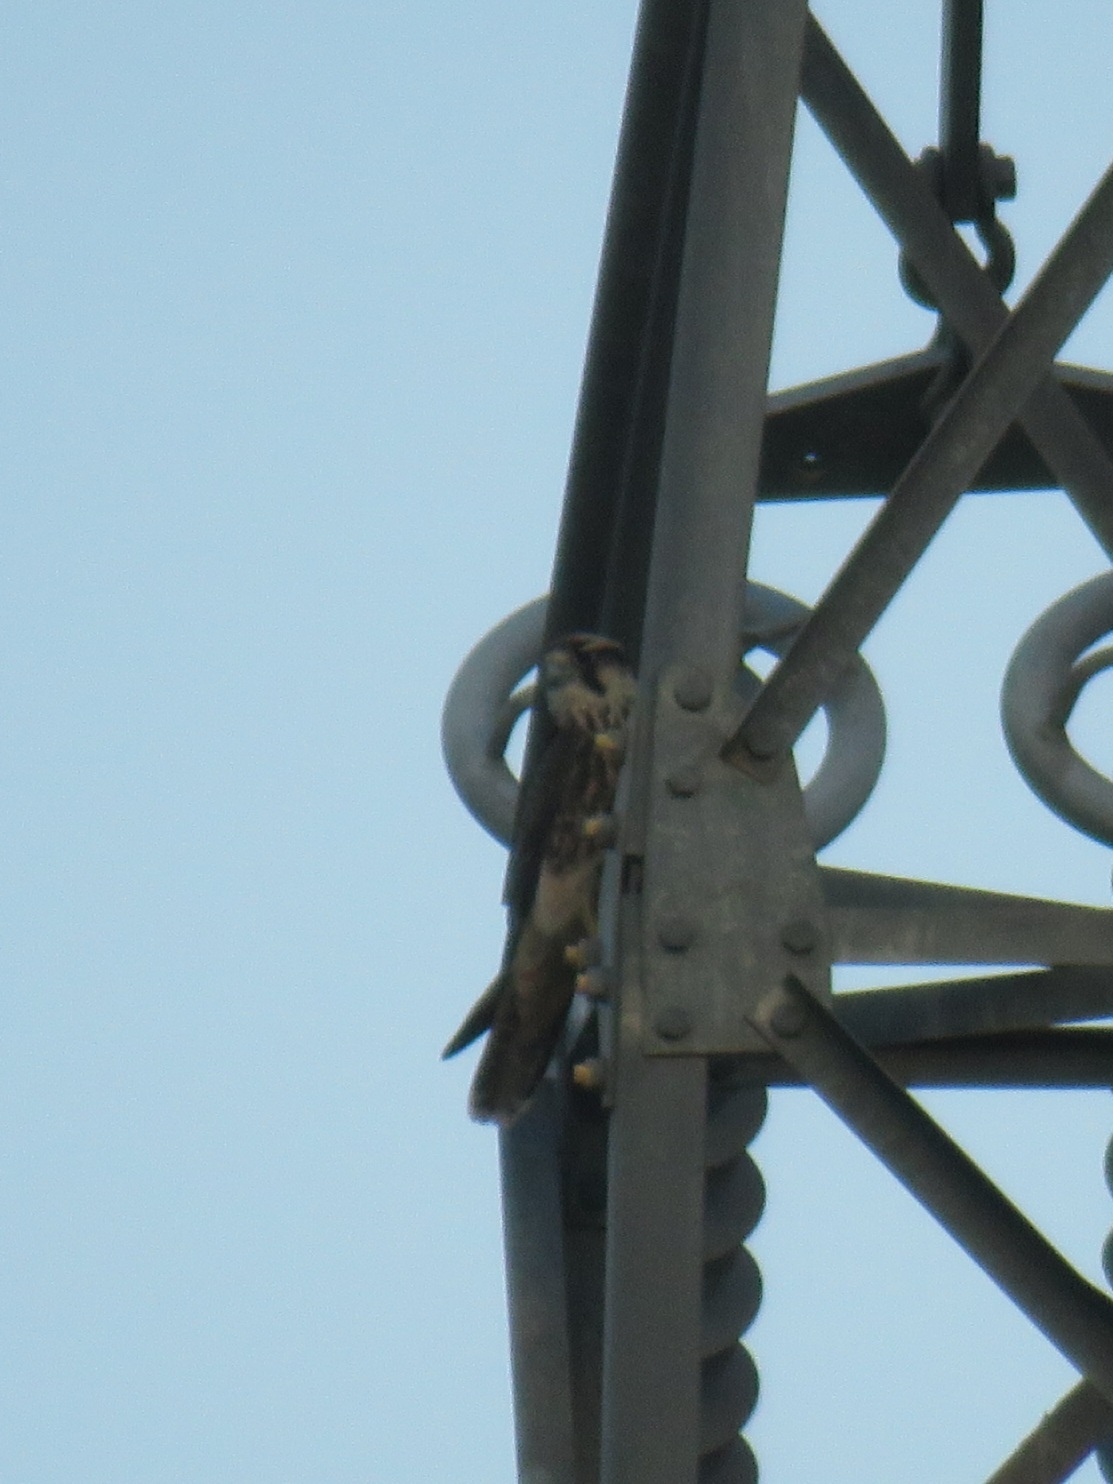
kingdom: Animalia
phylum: Chordata
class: Aves
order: Falconiformes
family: Falconidae
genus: Falco
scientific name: Falco biarmicus
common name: Lanner falcon
